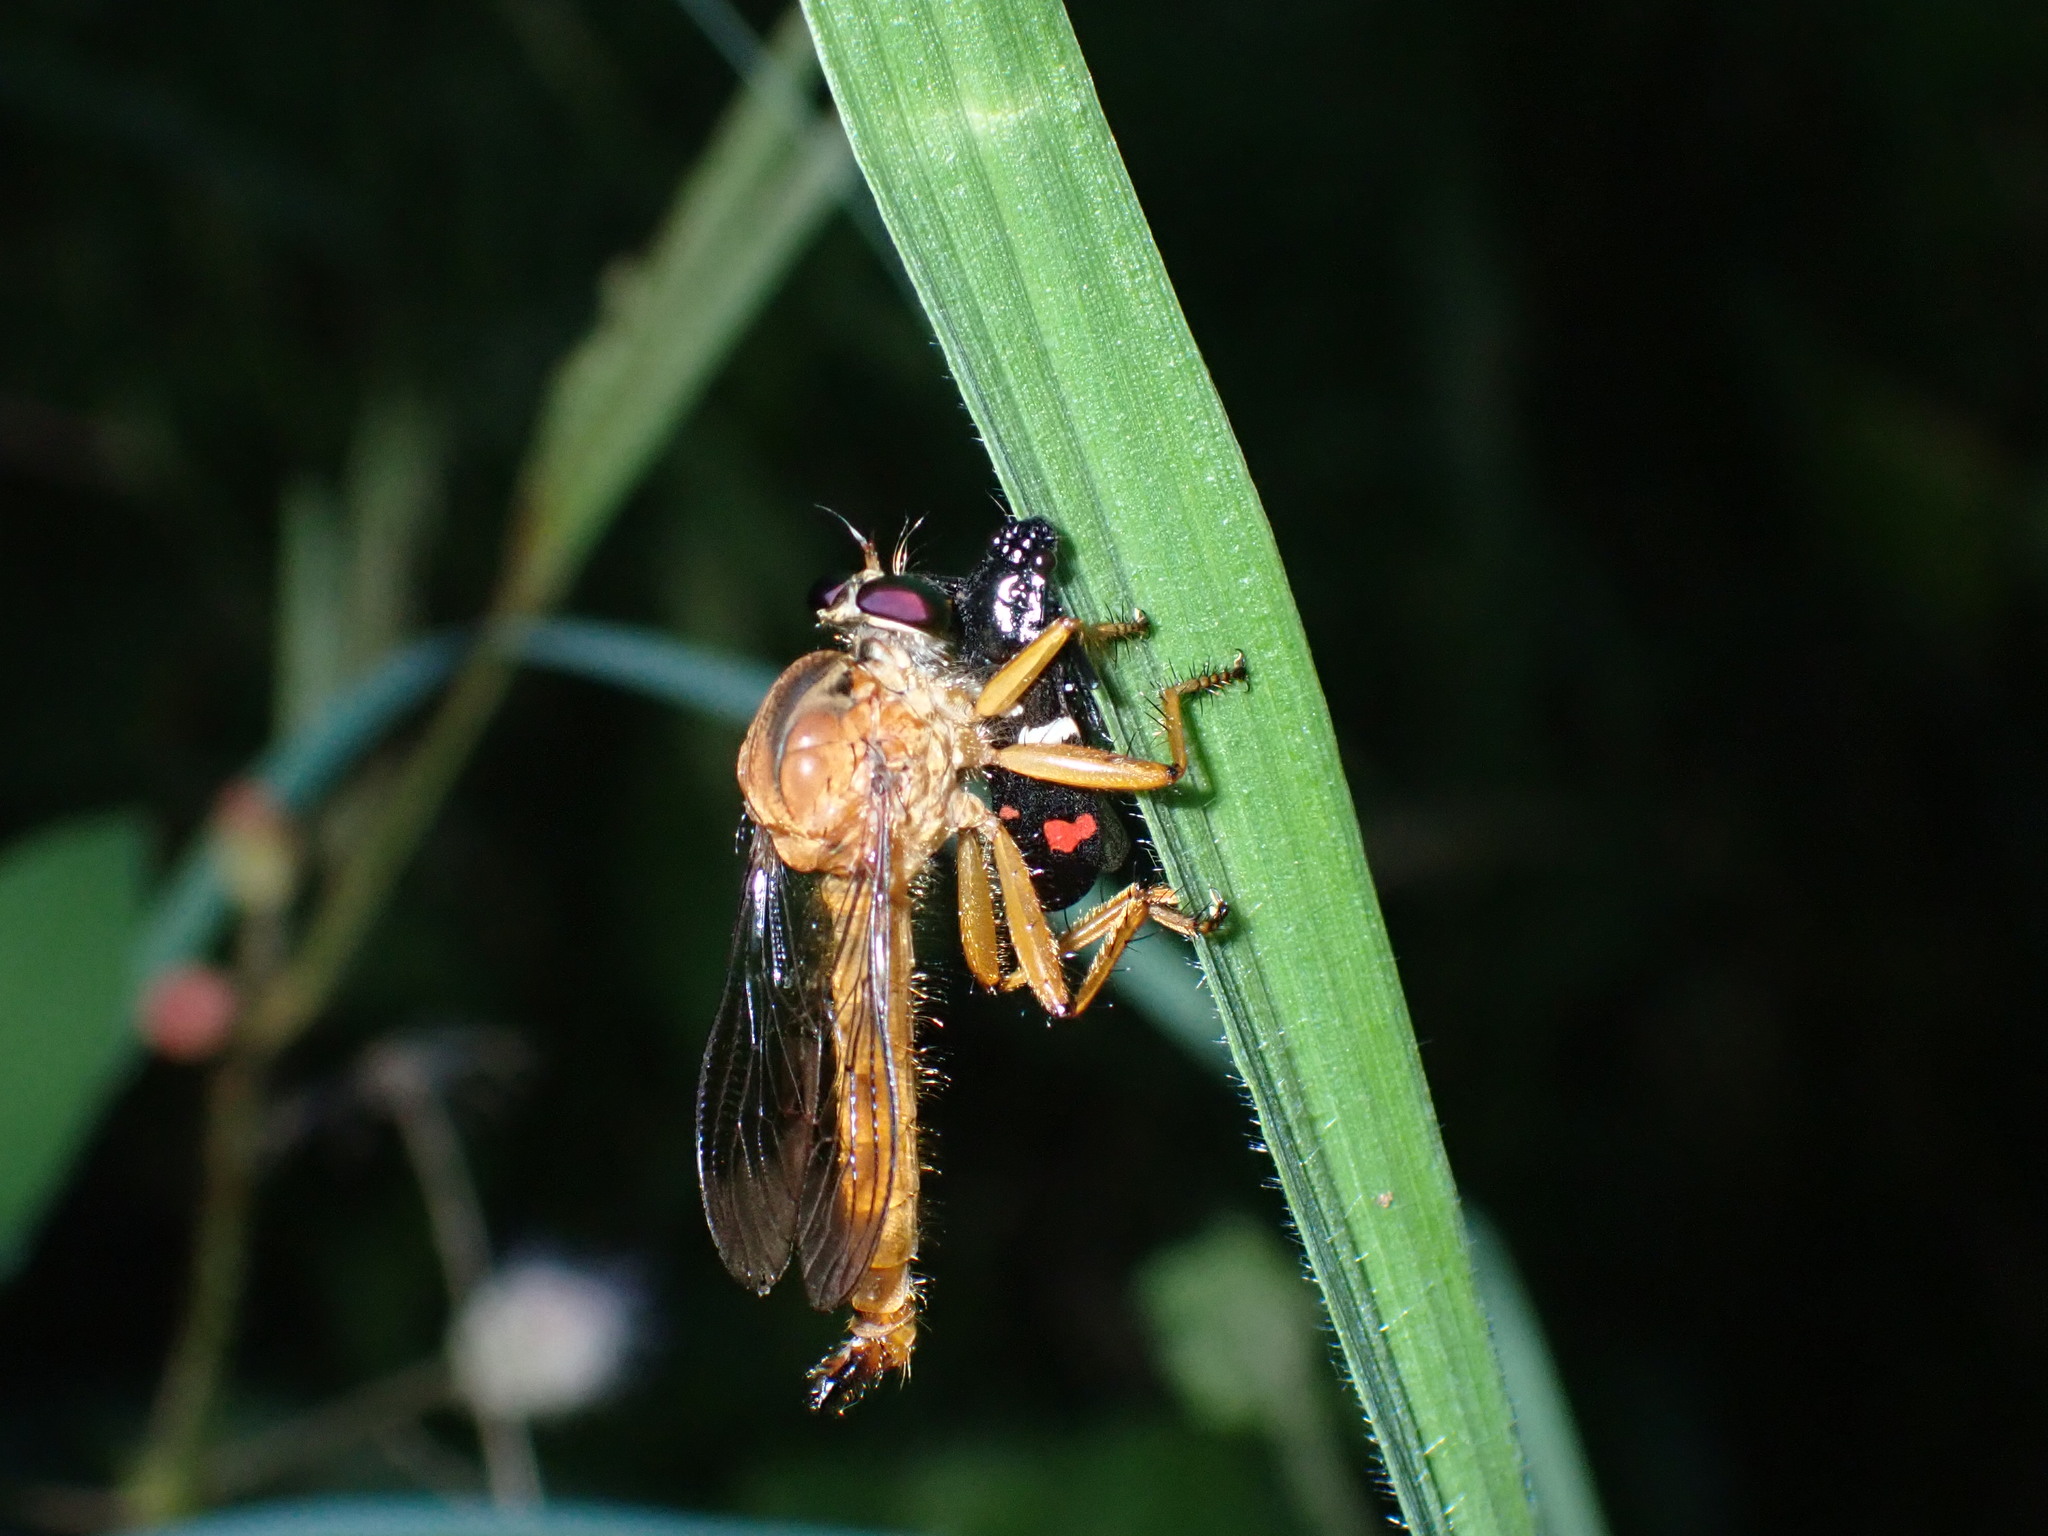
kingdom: Animalia
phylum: Arthropoda
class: Insecta
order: Hemiptera
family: Cercopidae
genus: Callitettix
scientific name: Callitettix versicolor
